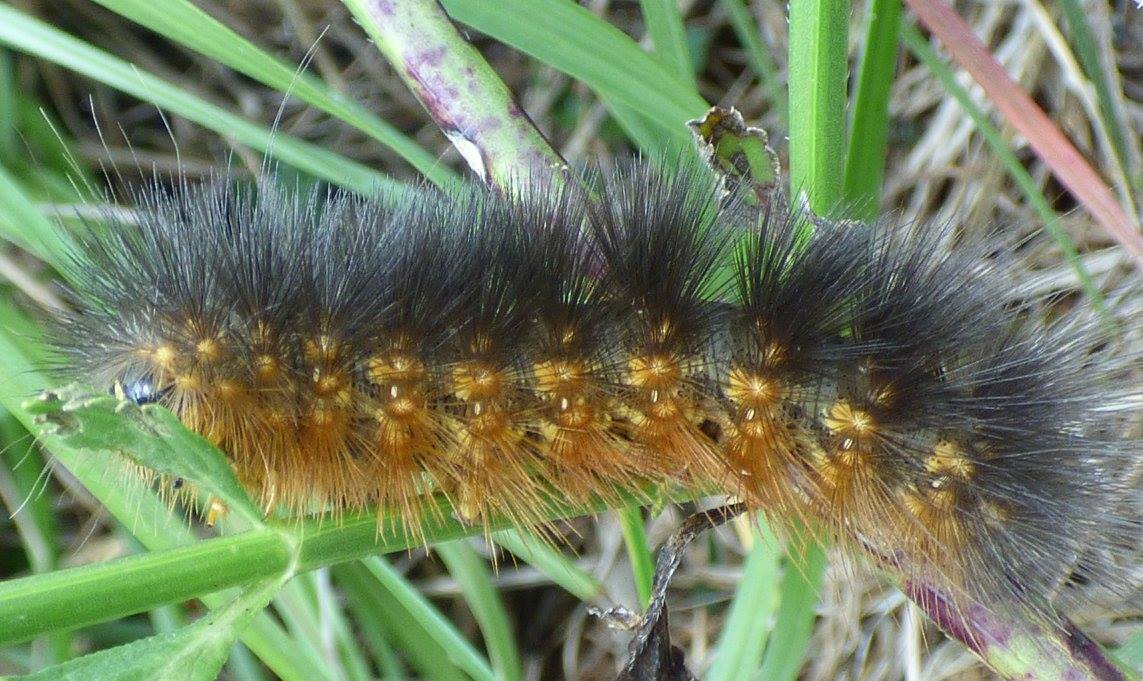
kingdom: Animalia
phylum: Arthropoda
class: Insecta
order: Lepidoptera
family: Erebidae
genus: Estigmene
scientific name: Estigmene acrea
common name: Salt marsh moth
